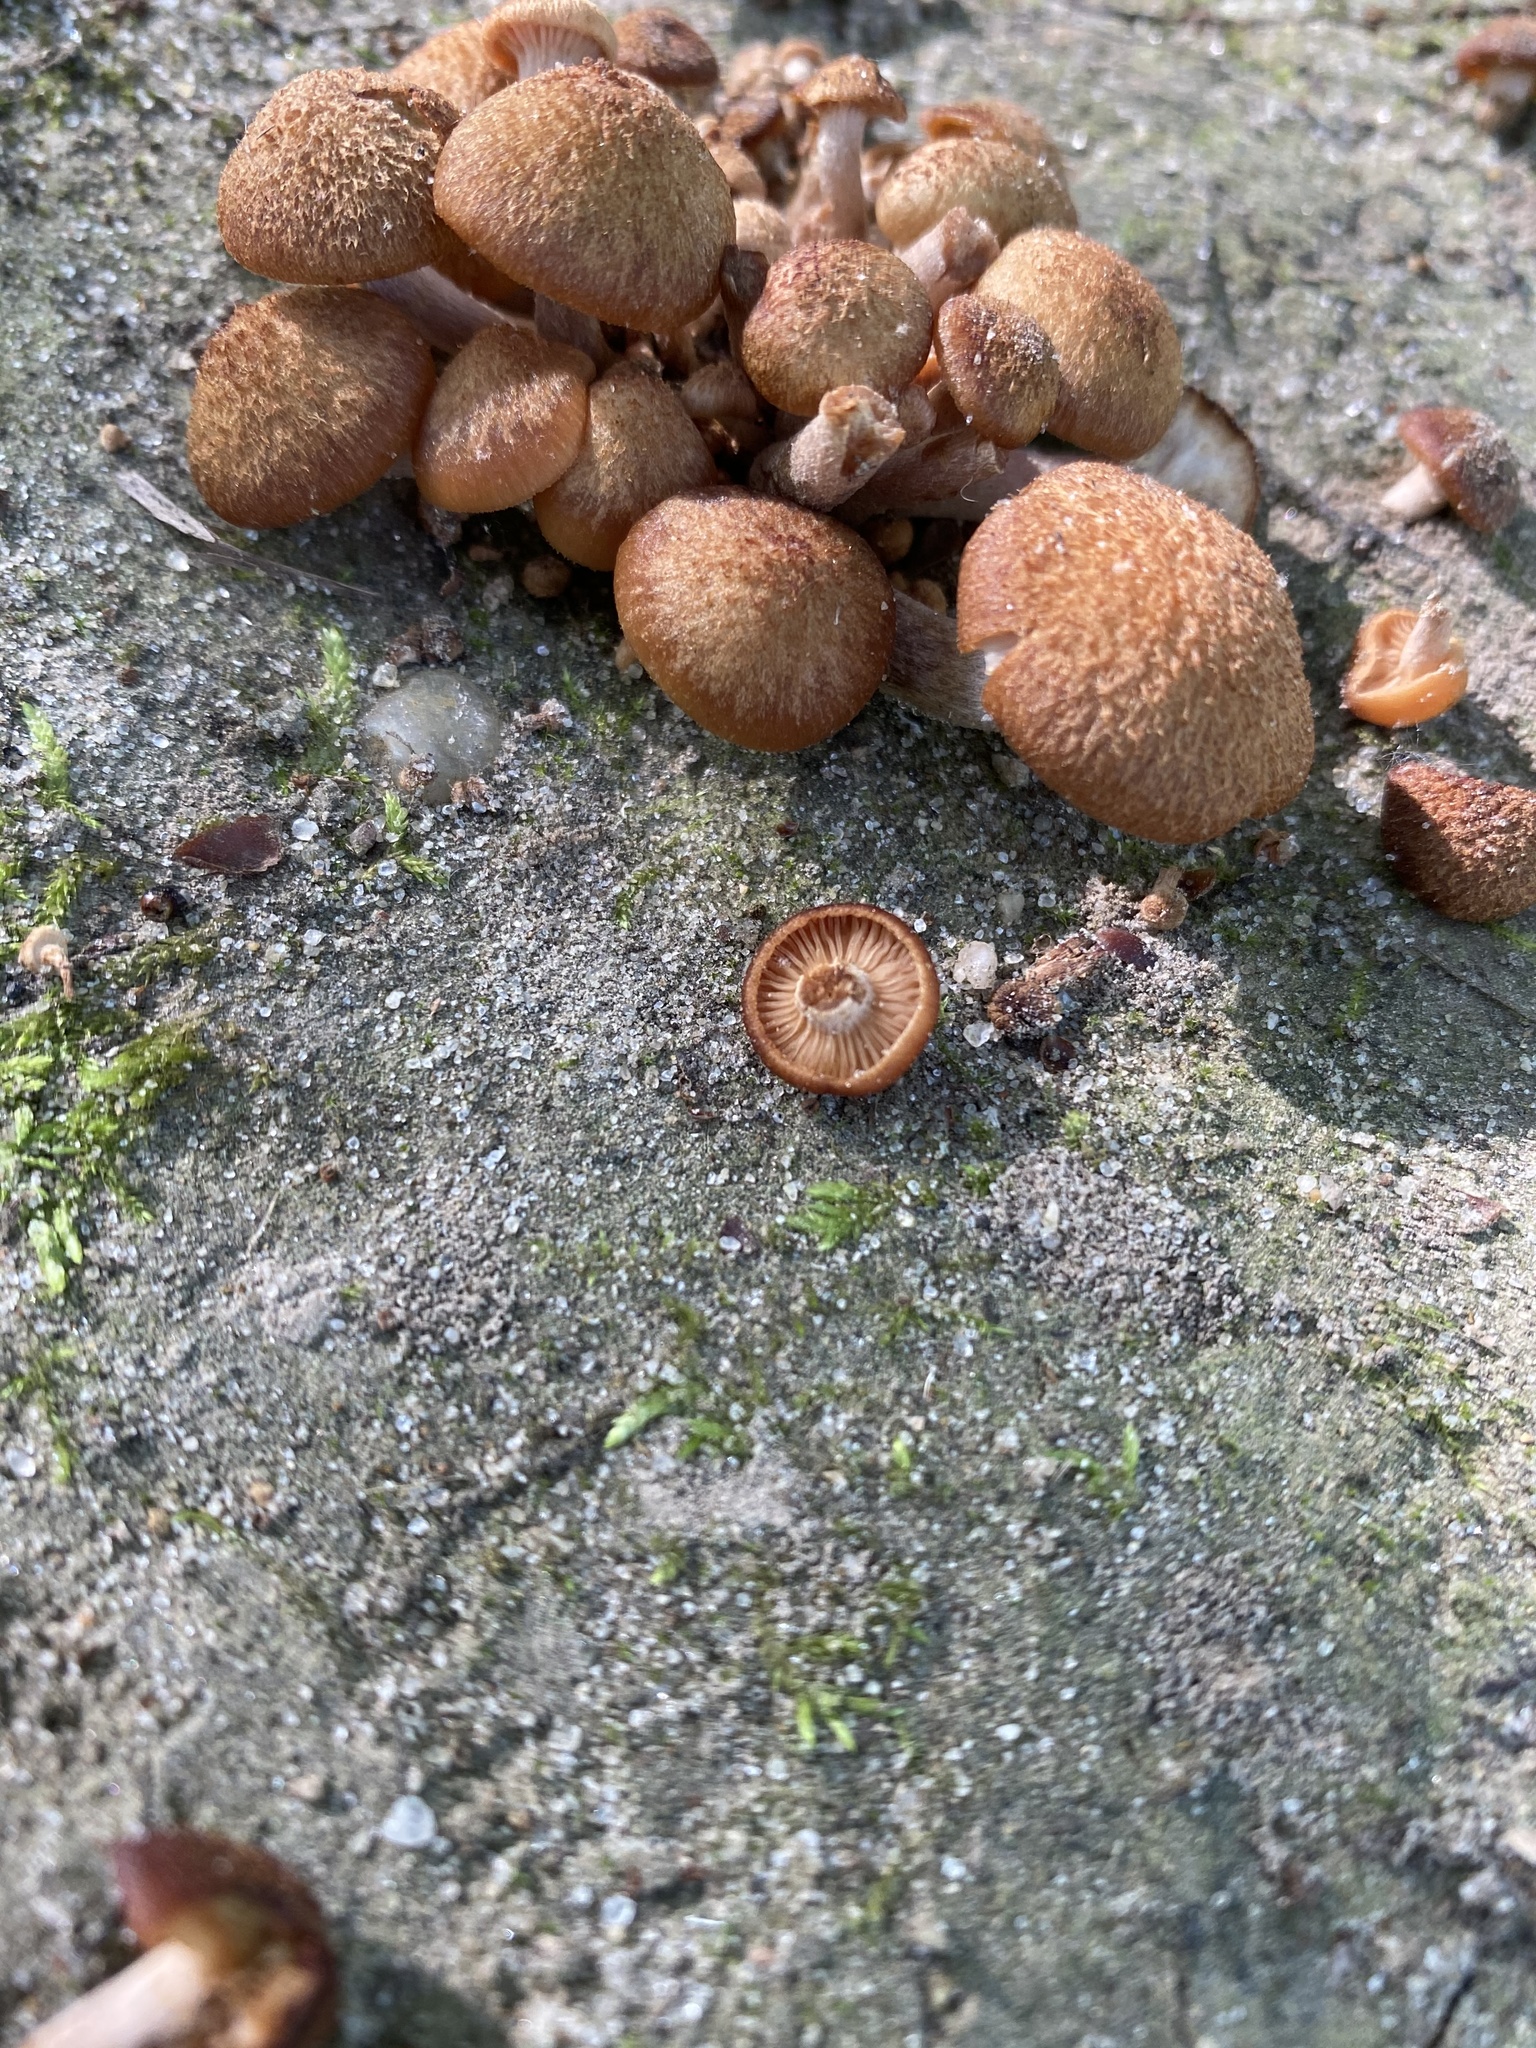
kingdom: Fungi
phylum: Basidiomycota
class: Agaricomycetes
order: Agaricales
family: Physalacriaceae
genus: Desarmillaria
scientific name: Desarmillaria caespitosa
